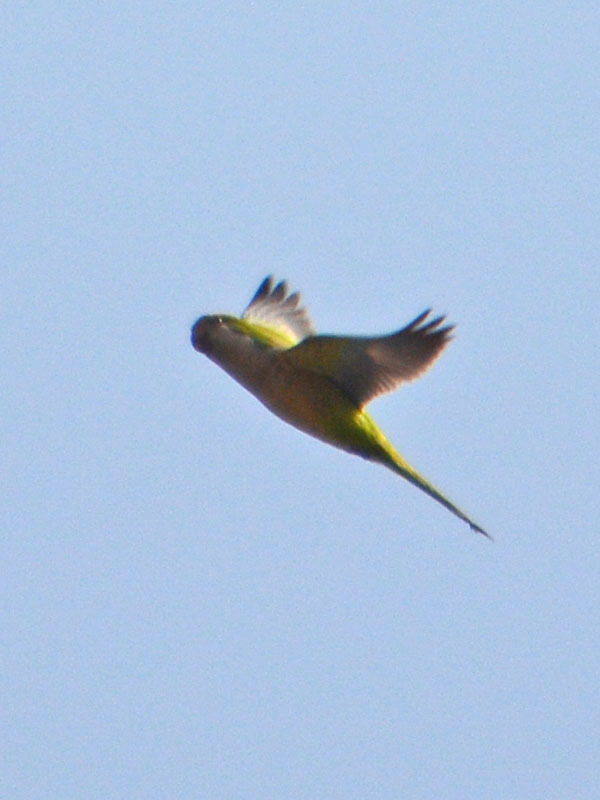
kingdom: Animalia
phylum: Chordata
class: Aves
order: Psittaciformes
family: Psittacidae
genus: Myiopsitta
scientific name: Myiopsitta monachus
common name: Monk parakeet
